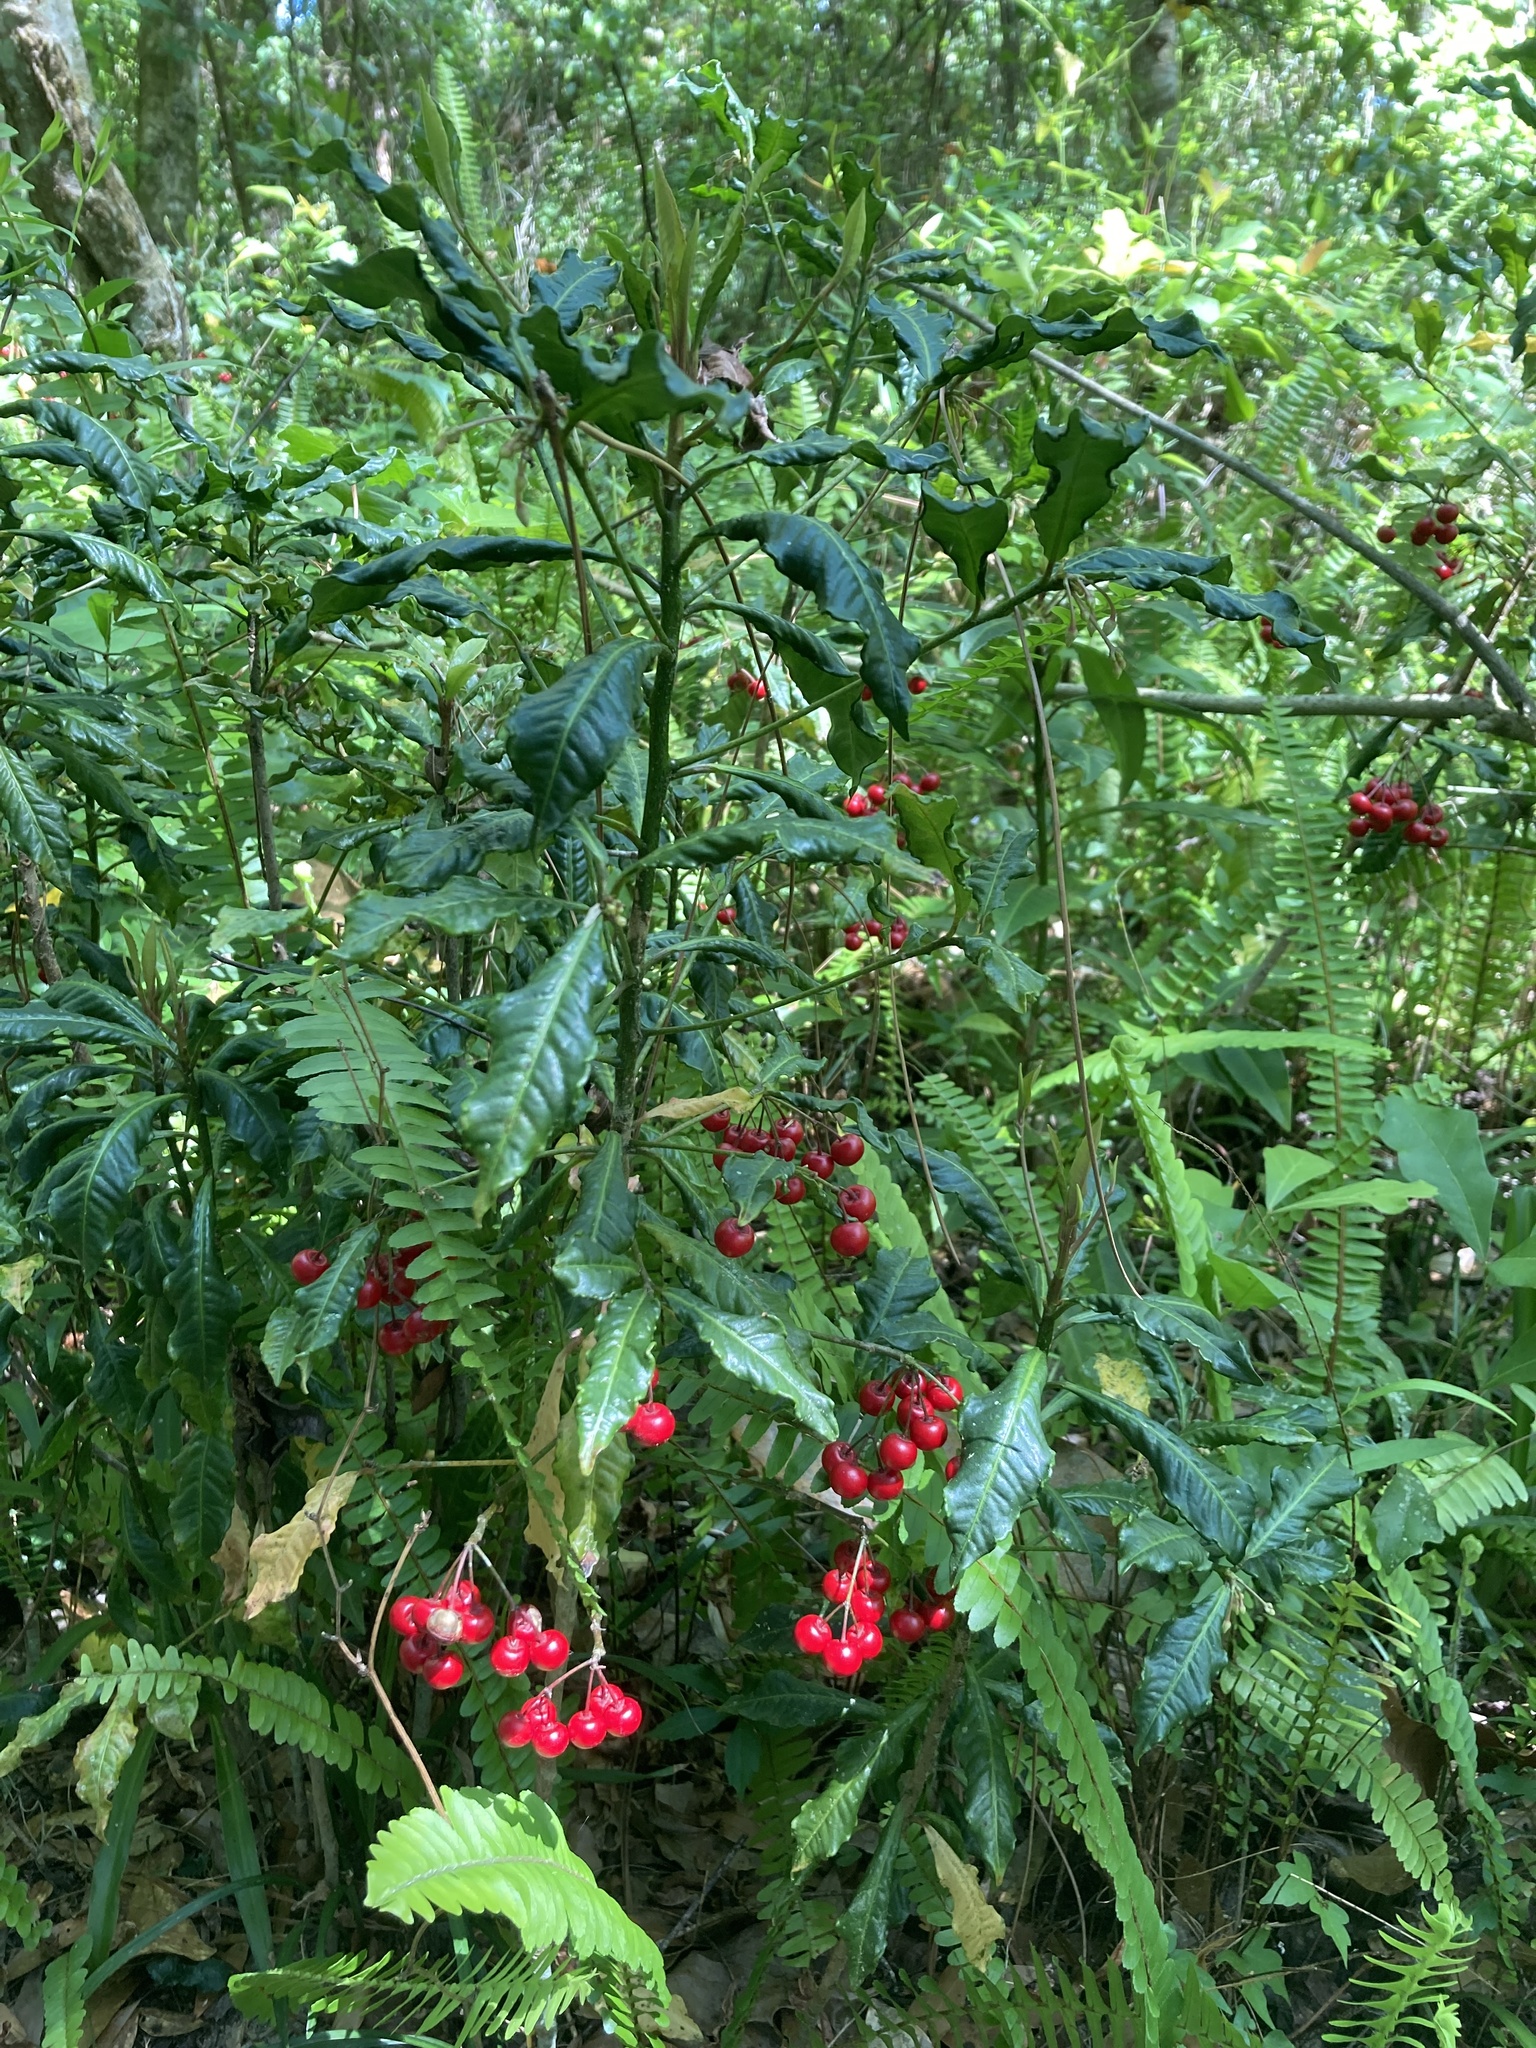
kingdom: Plantae
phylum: Tracheophyta
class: Magnoliopsida
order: Ericales
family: Primulaceae
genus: Ardisia
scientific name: Ardisia crenata
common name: Hen's eyes
